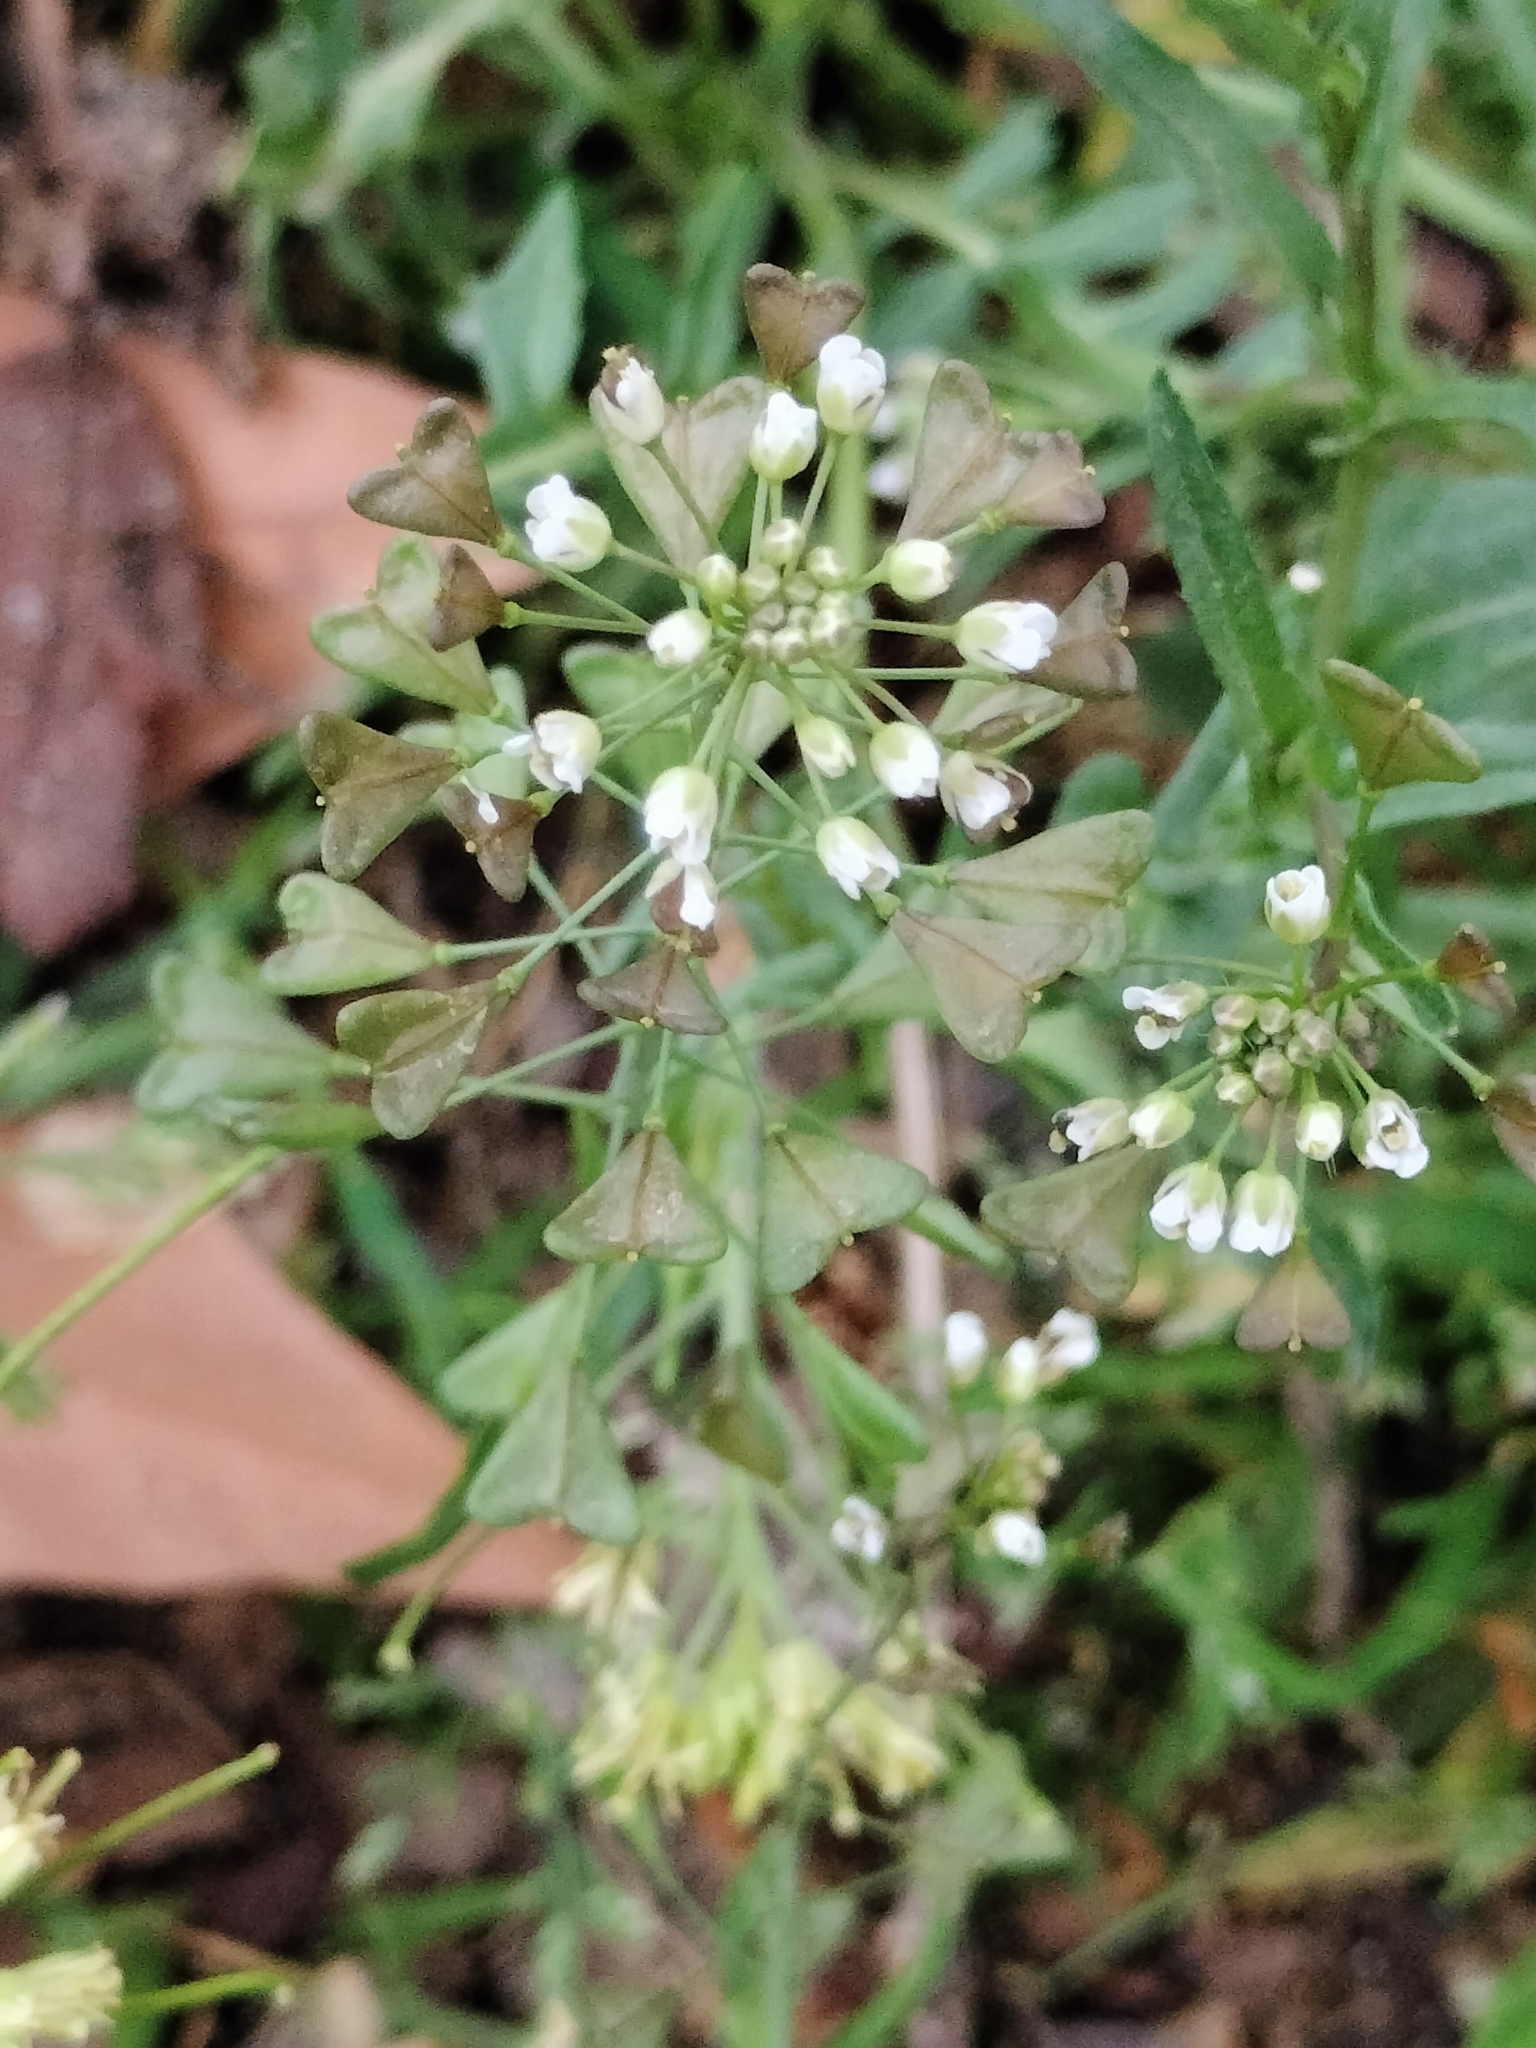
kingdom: Plantae
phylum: Tracheophyta
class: Magnoliopsida
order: Brassicales
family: Brassicaceae
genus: Capsella
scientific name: Capsella bursa-pastoris
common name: Shepherd's purse
